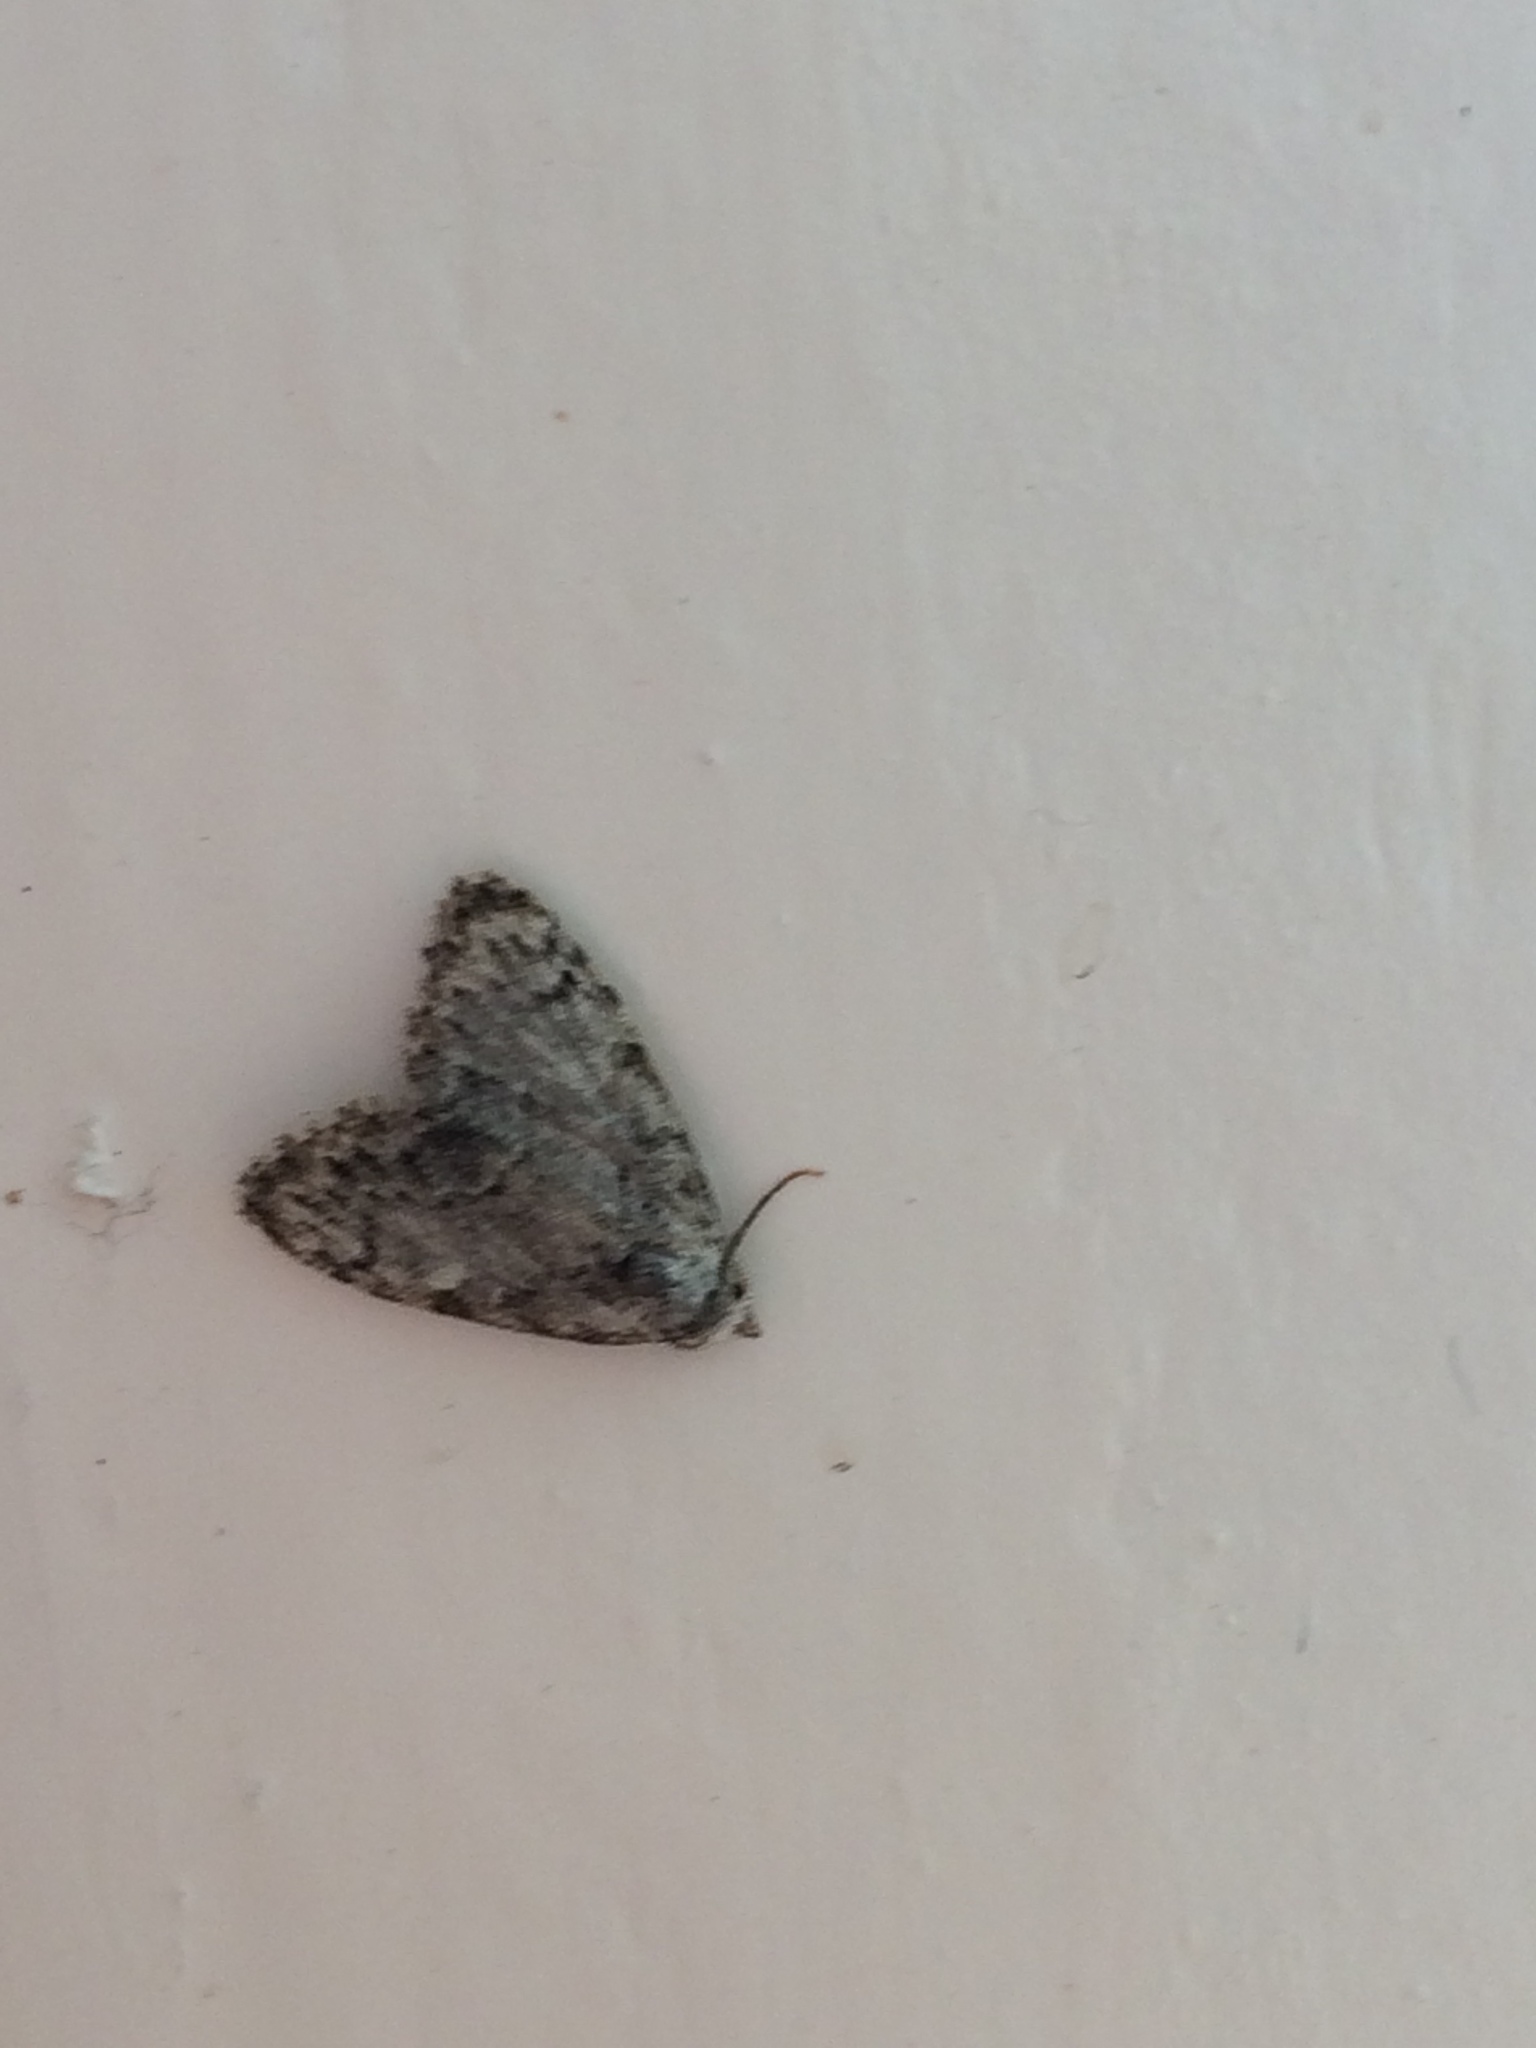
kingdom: Animalia
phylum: Arthropoda
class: Insecta
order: Lepidoptera
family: Nolidae
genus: Meganola
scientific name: Meganola strigula
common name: Small black arches
